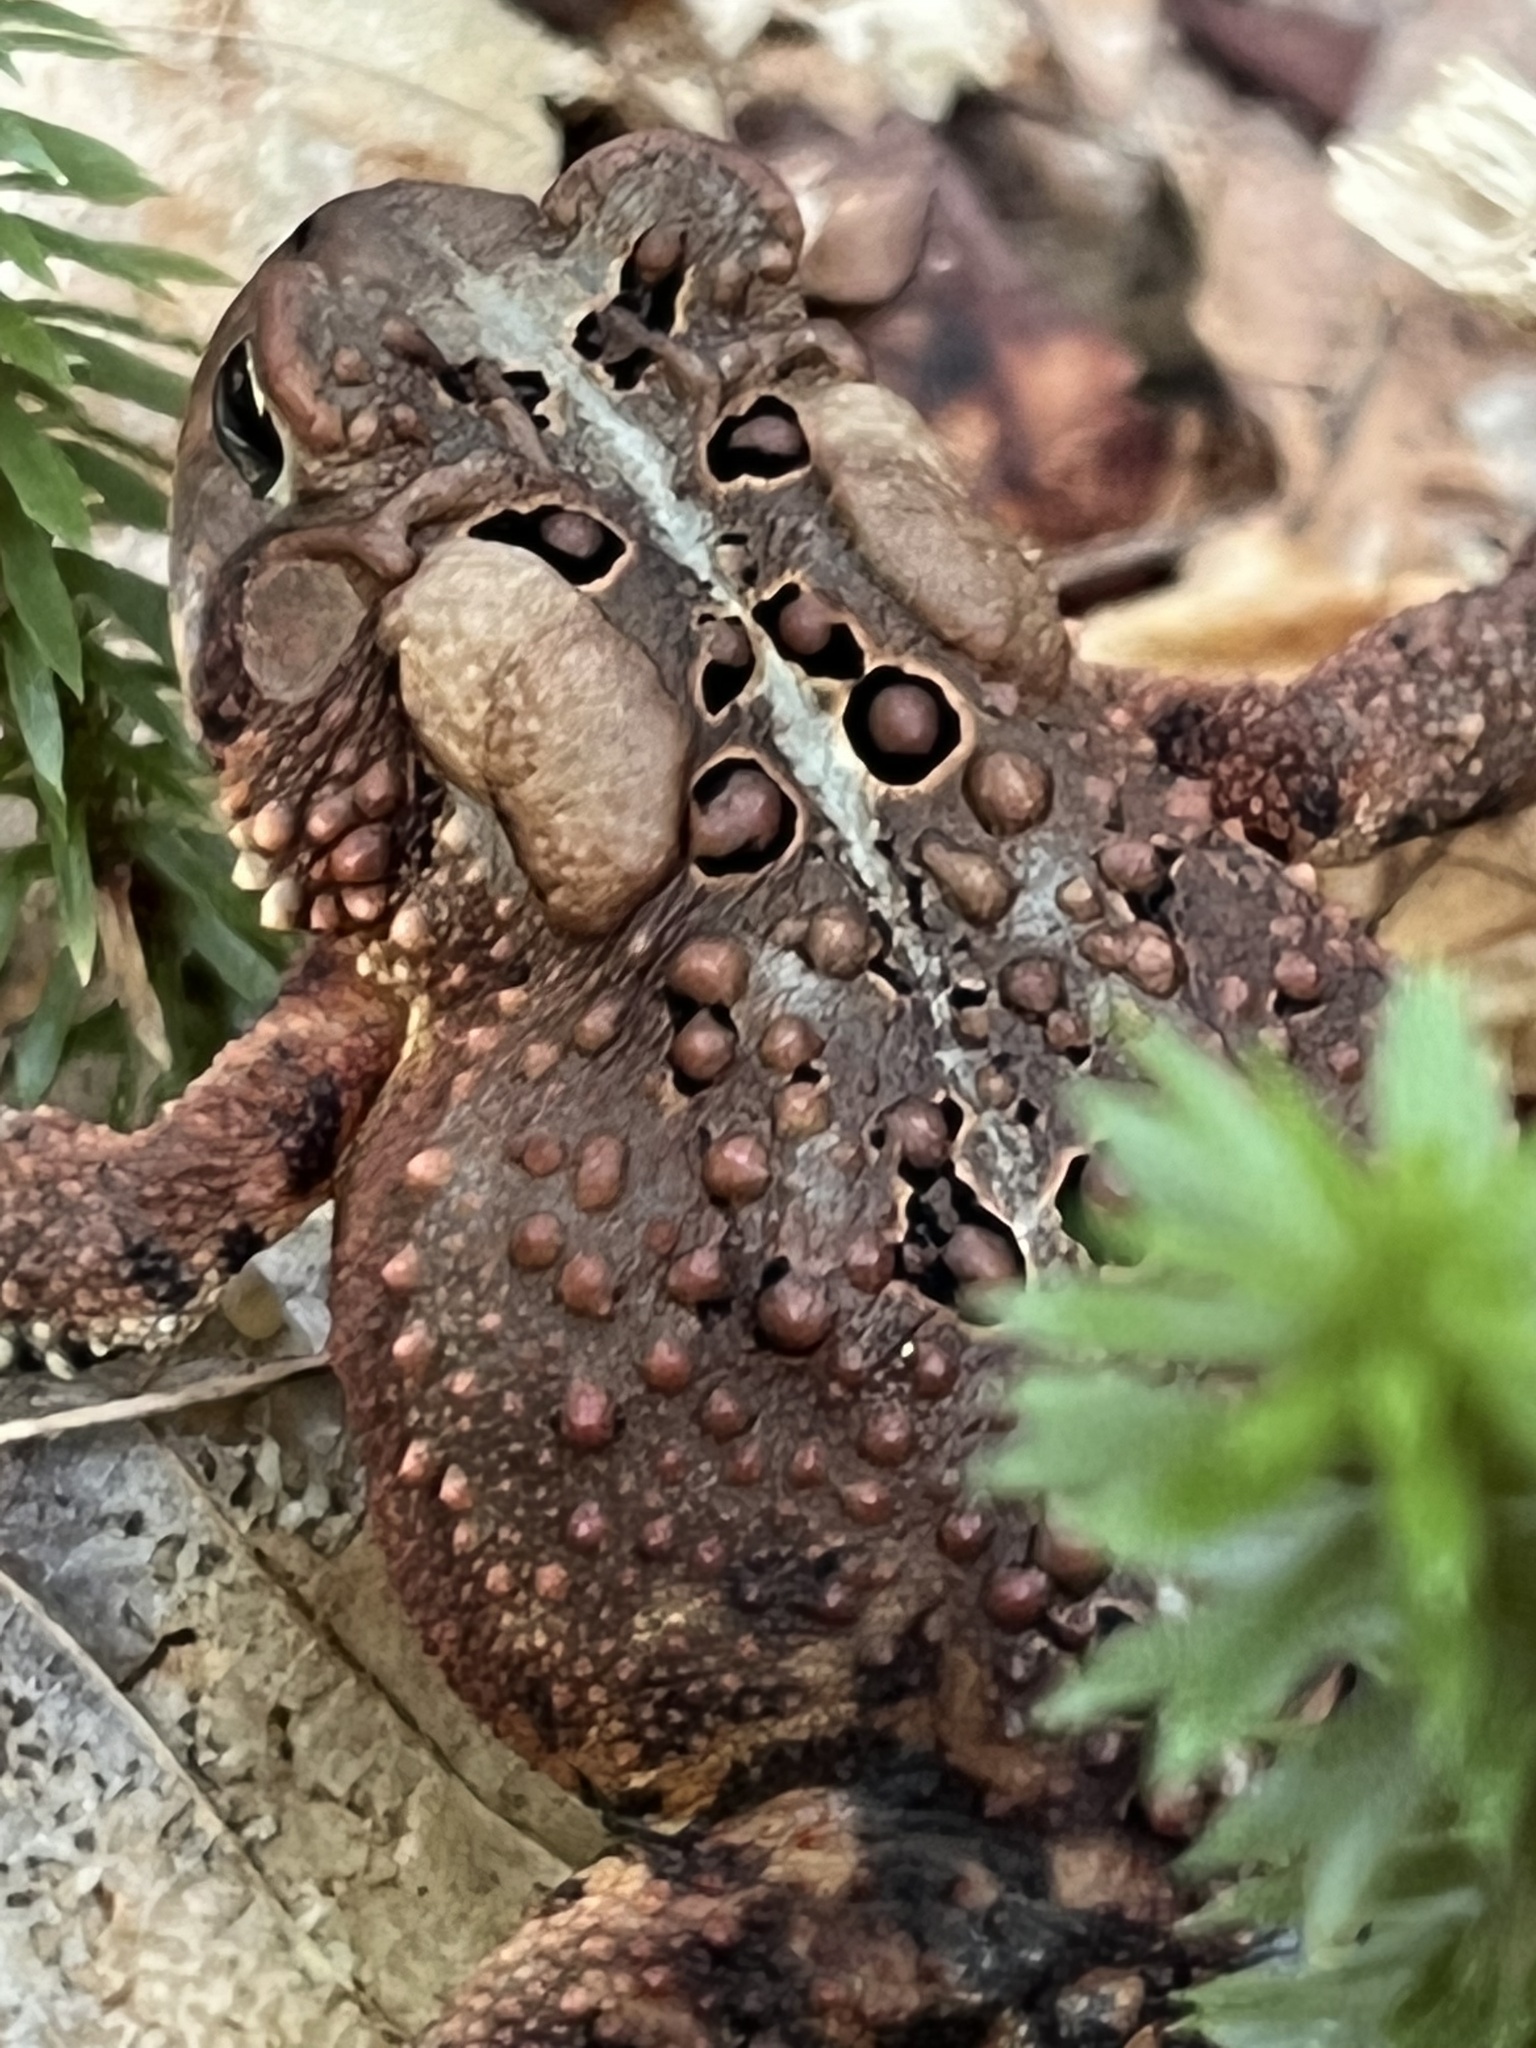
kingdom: Animalia
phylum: Chordata
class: Amphibia
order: Anura
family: Bufonidae
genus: Anaxyrus
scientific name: Anaxyrus americanus
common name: American toad
